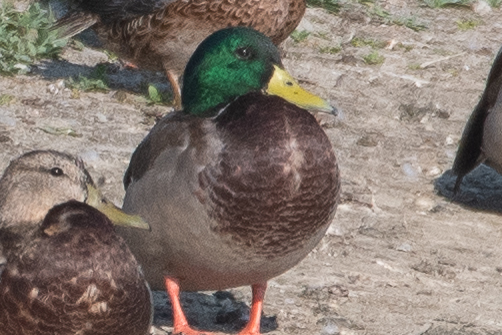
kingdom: Animalia
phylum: Chordata
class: Aves
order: Anseriformes
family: Anatidae
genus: Anas
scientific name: Anas platyrhynchos
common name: Mallard
